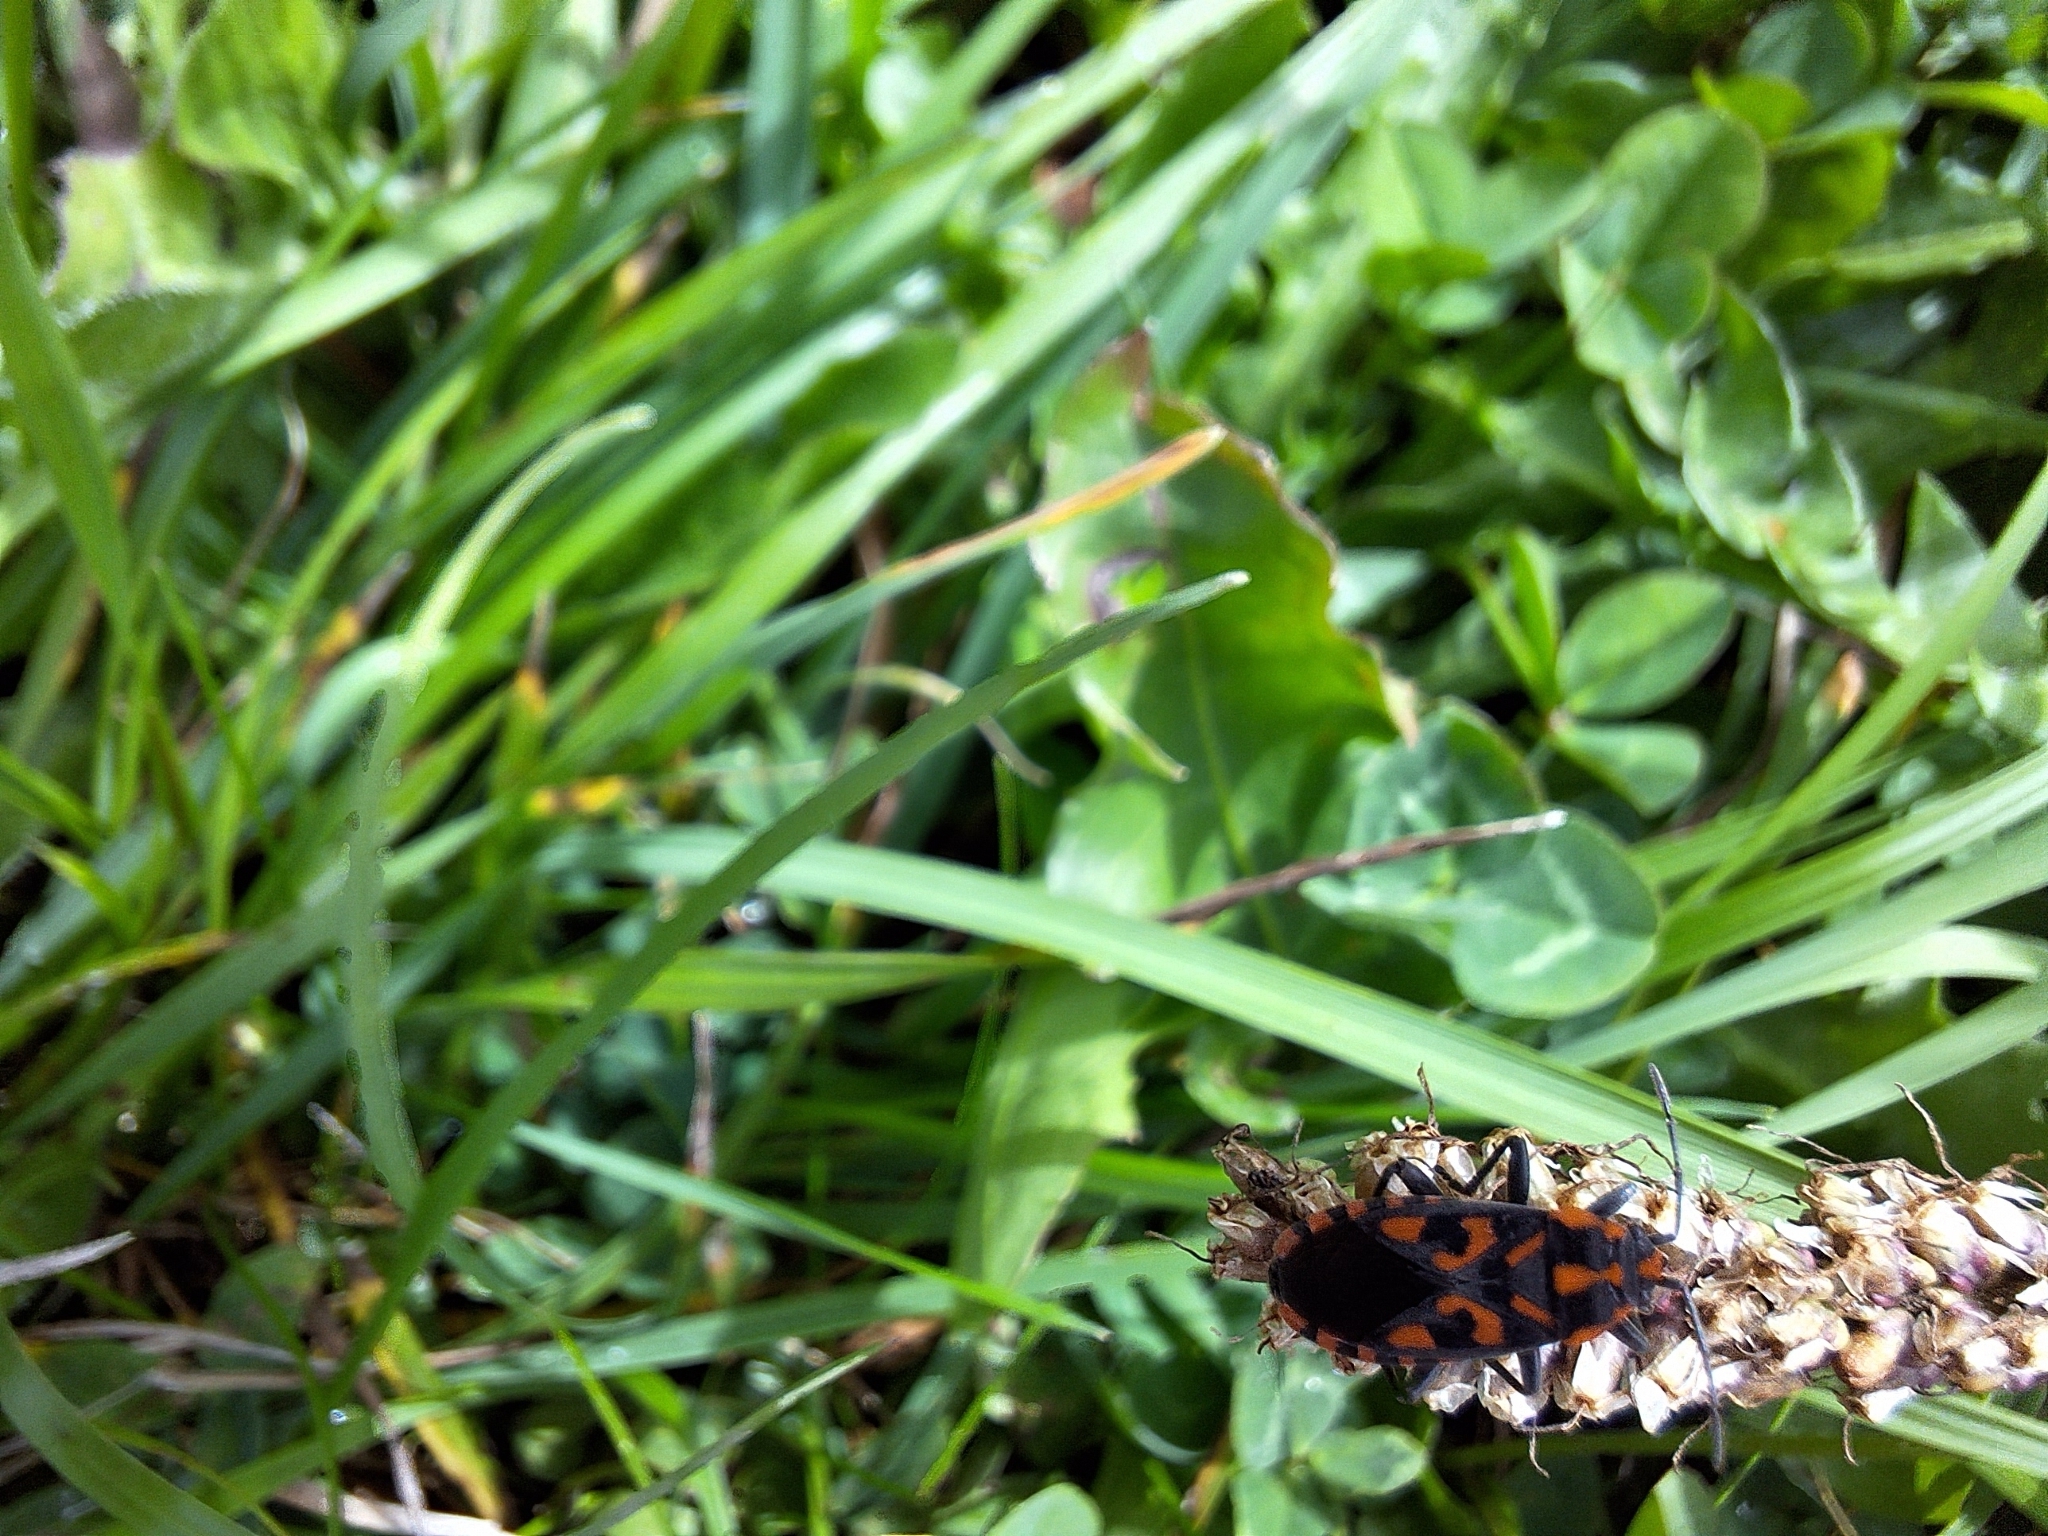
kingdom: Animalia
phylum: Arthropoda
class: Insecta
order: Hemiptera
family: Lygaeidae
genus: Spilostethus
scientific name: Spilostethus saxatilis
